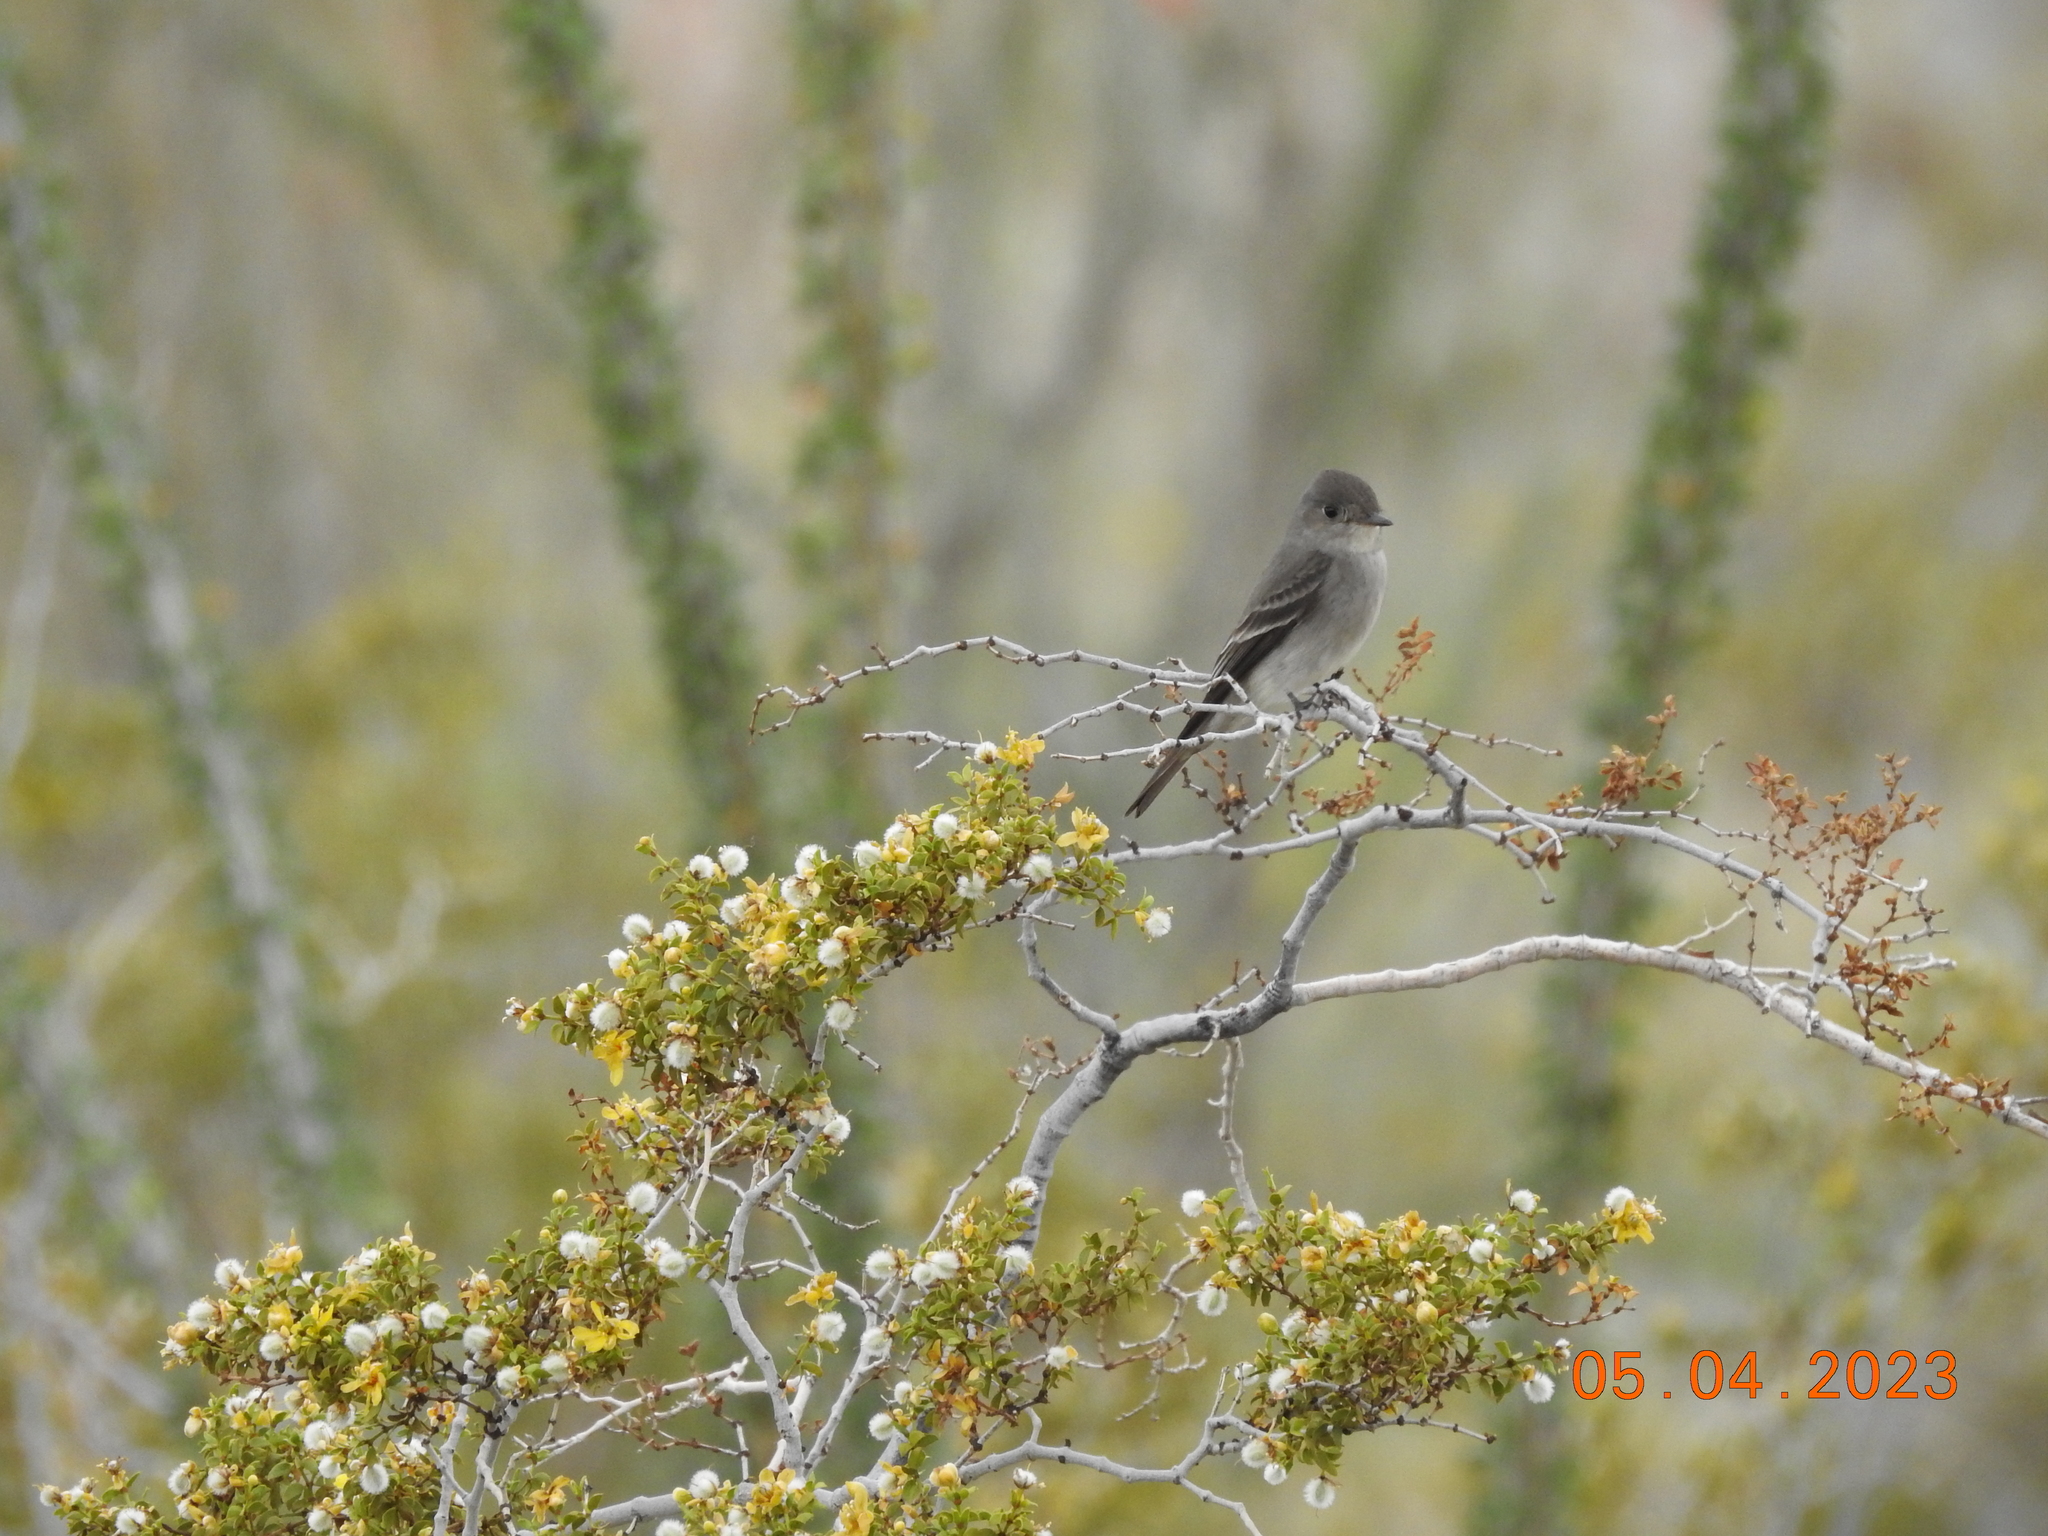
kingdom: Animalia
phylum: Chordata
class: Aves
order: Passeriformes
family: Tyrannidae
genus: Contopus
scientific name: Contopus sordidulus
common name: Western wood-pewee
